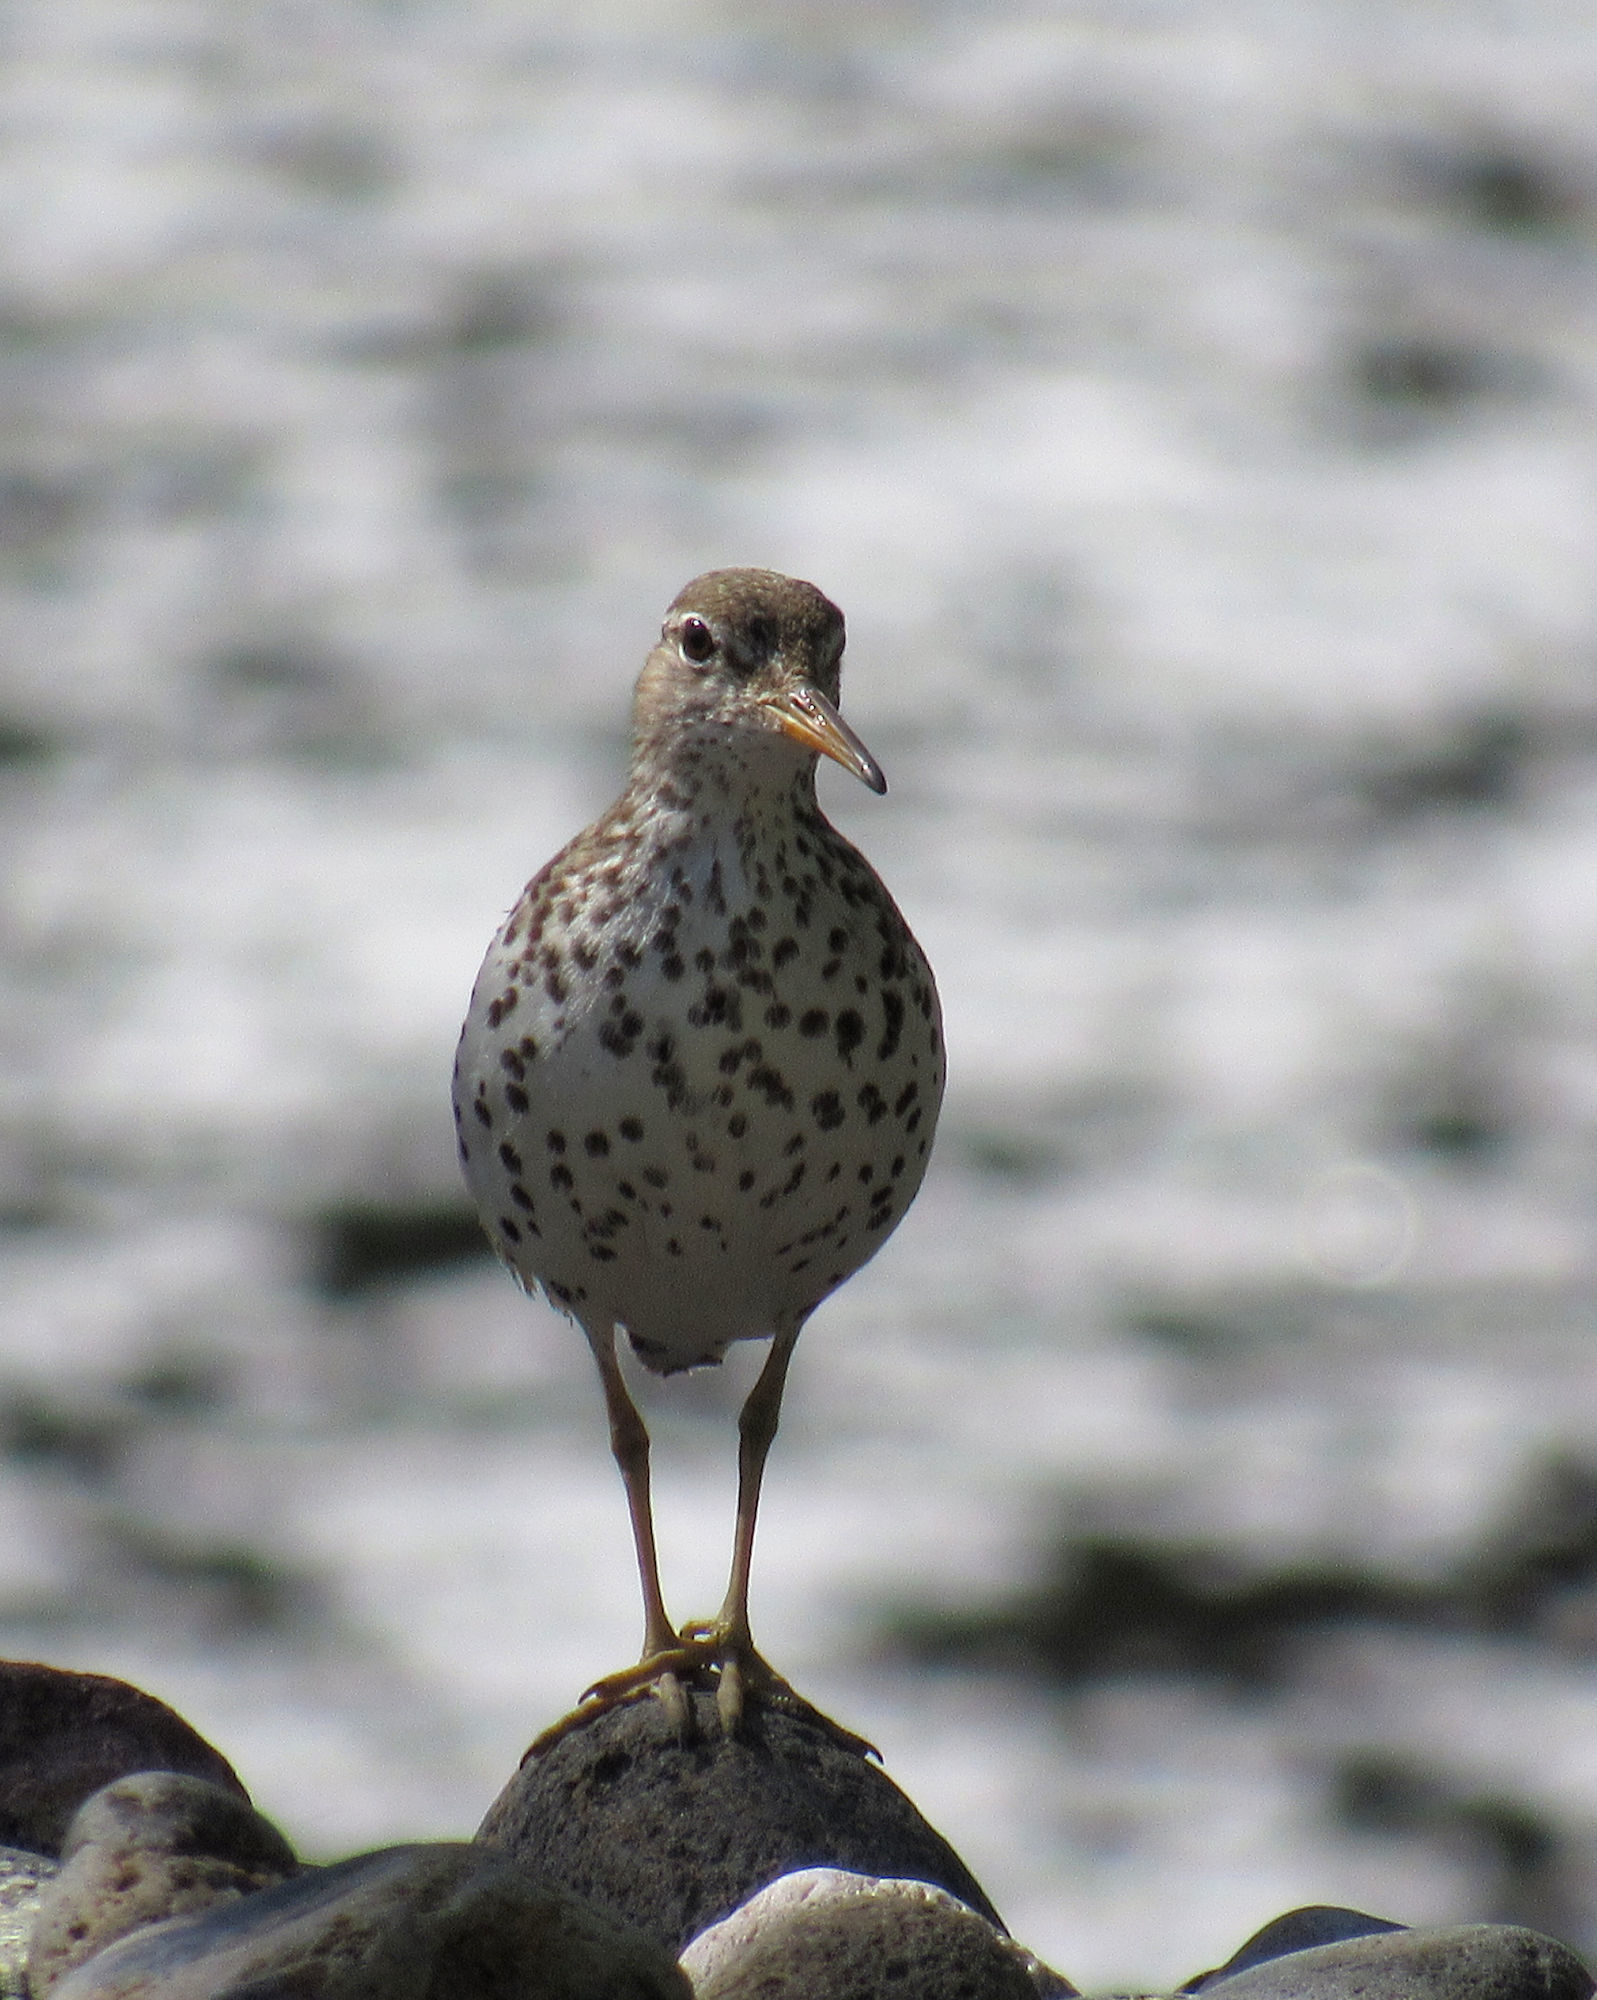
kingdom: Animalia
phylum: Chordata
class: Aves
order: Charadriiformes
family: Scolopacidae
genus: Actitis
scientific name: Actitis macularius
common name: Spotted sandpiper
